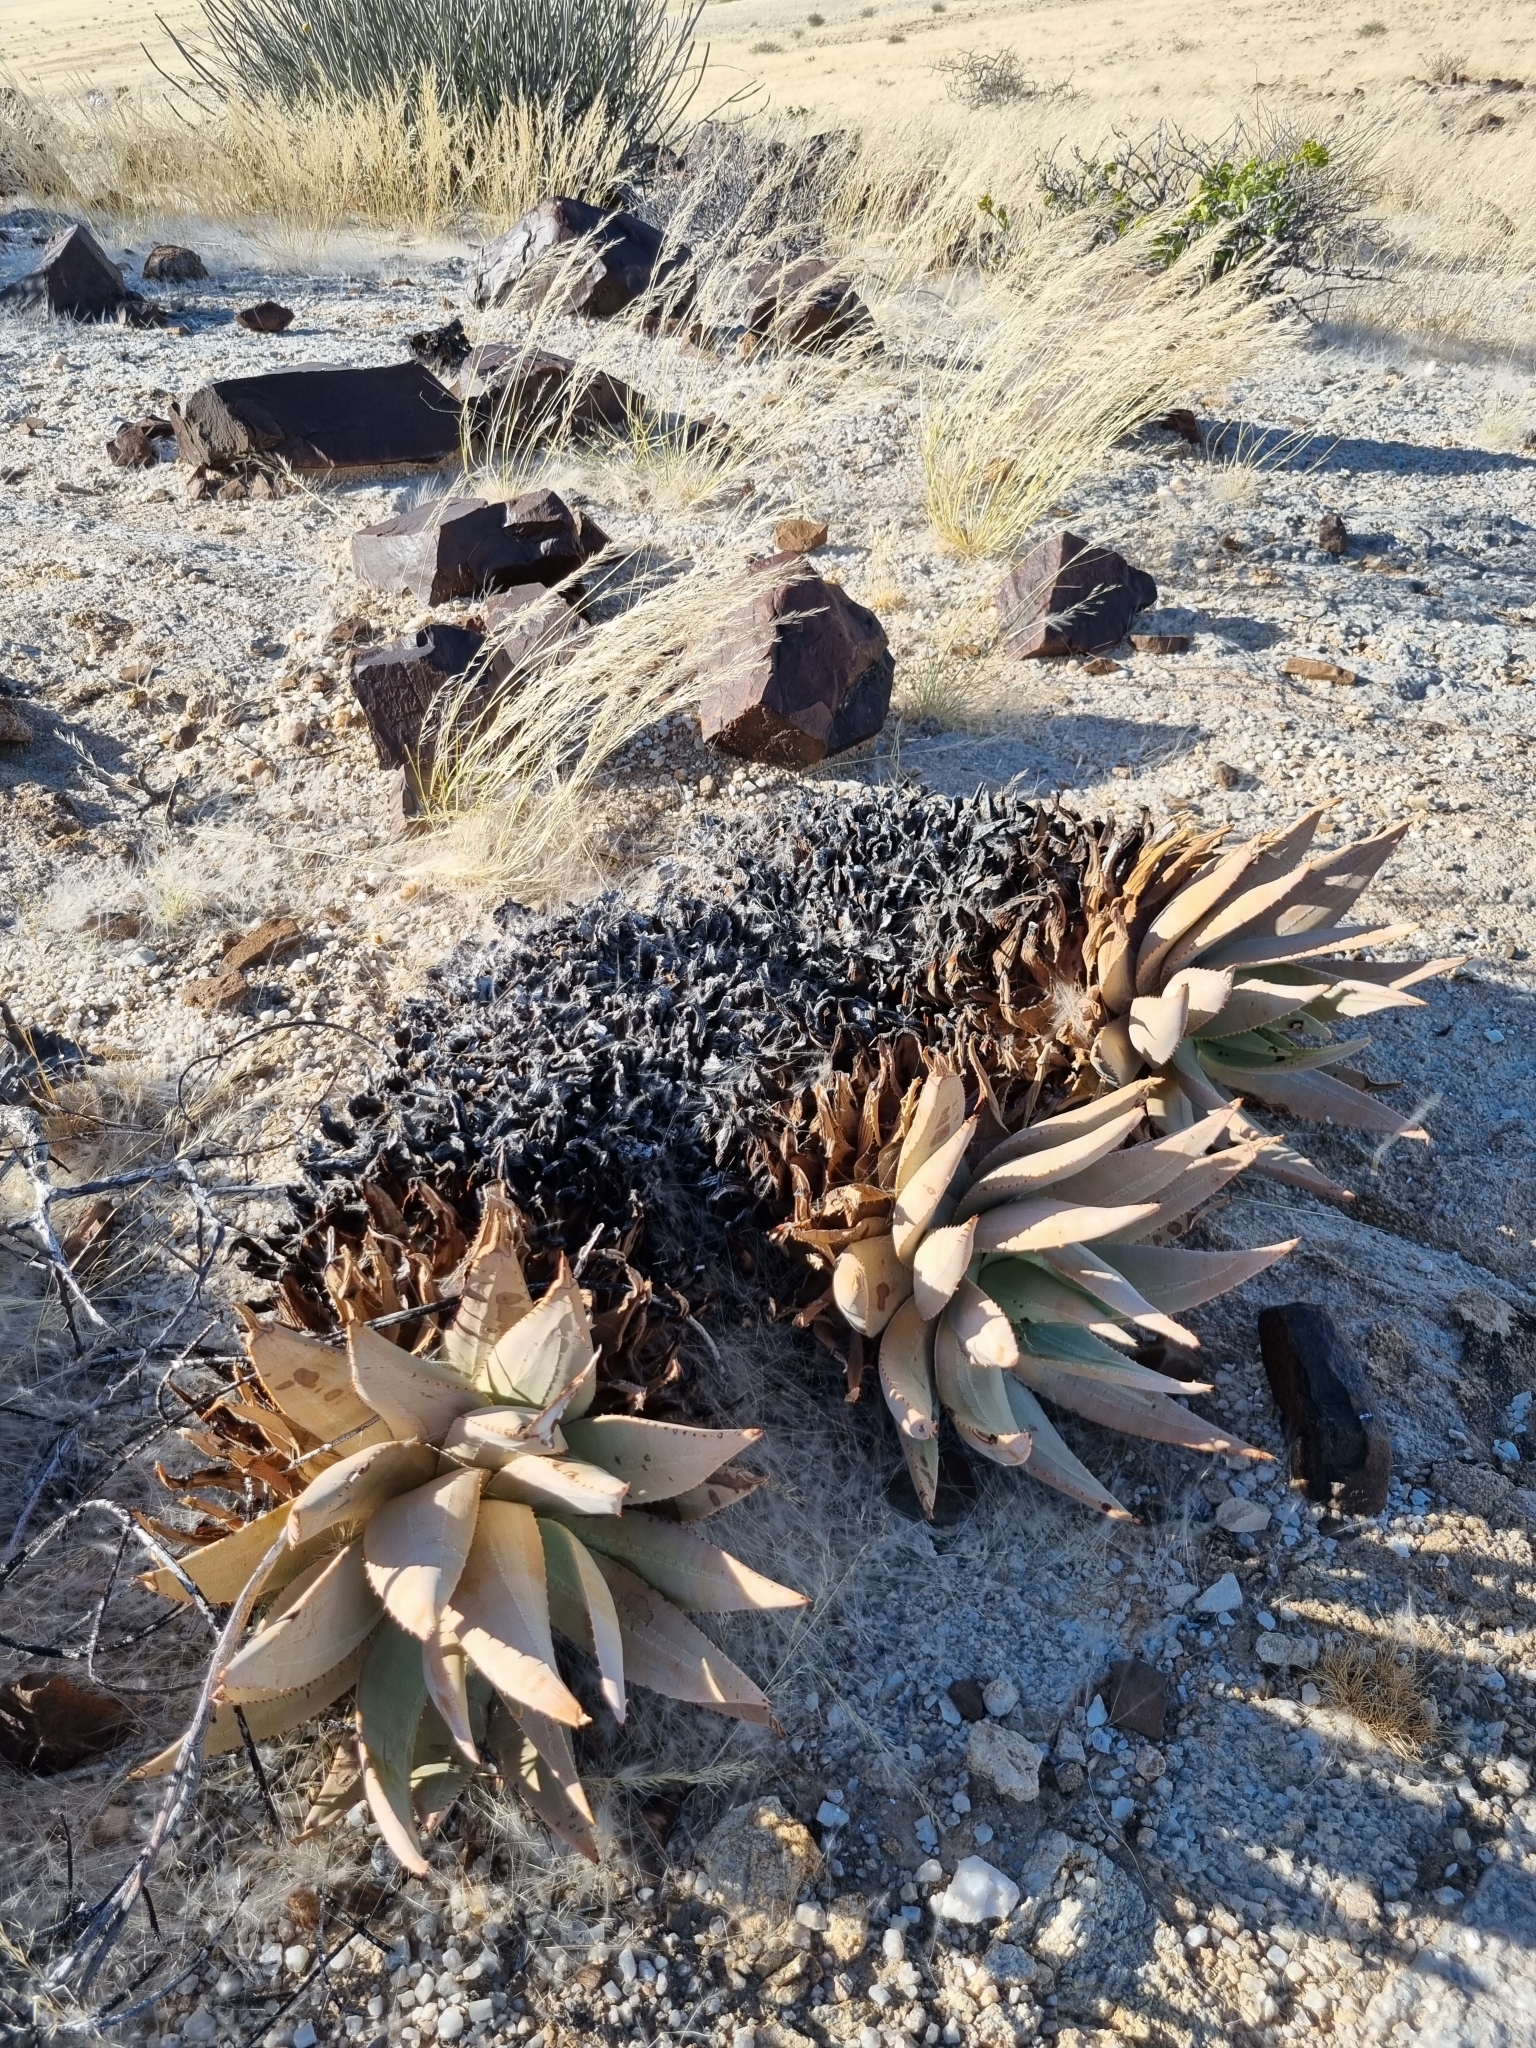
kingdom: Plantae
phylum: Tracheophyta
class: Liliopsida
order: Asparagales
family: Asphodelaceae
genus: Aloe
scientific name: Aloe asperifolia
